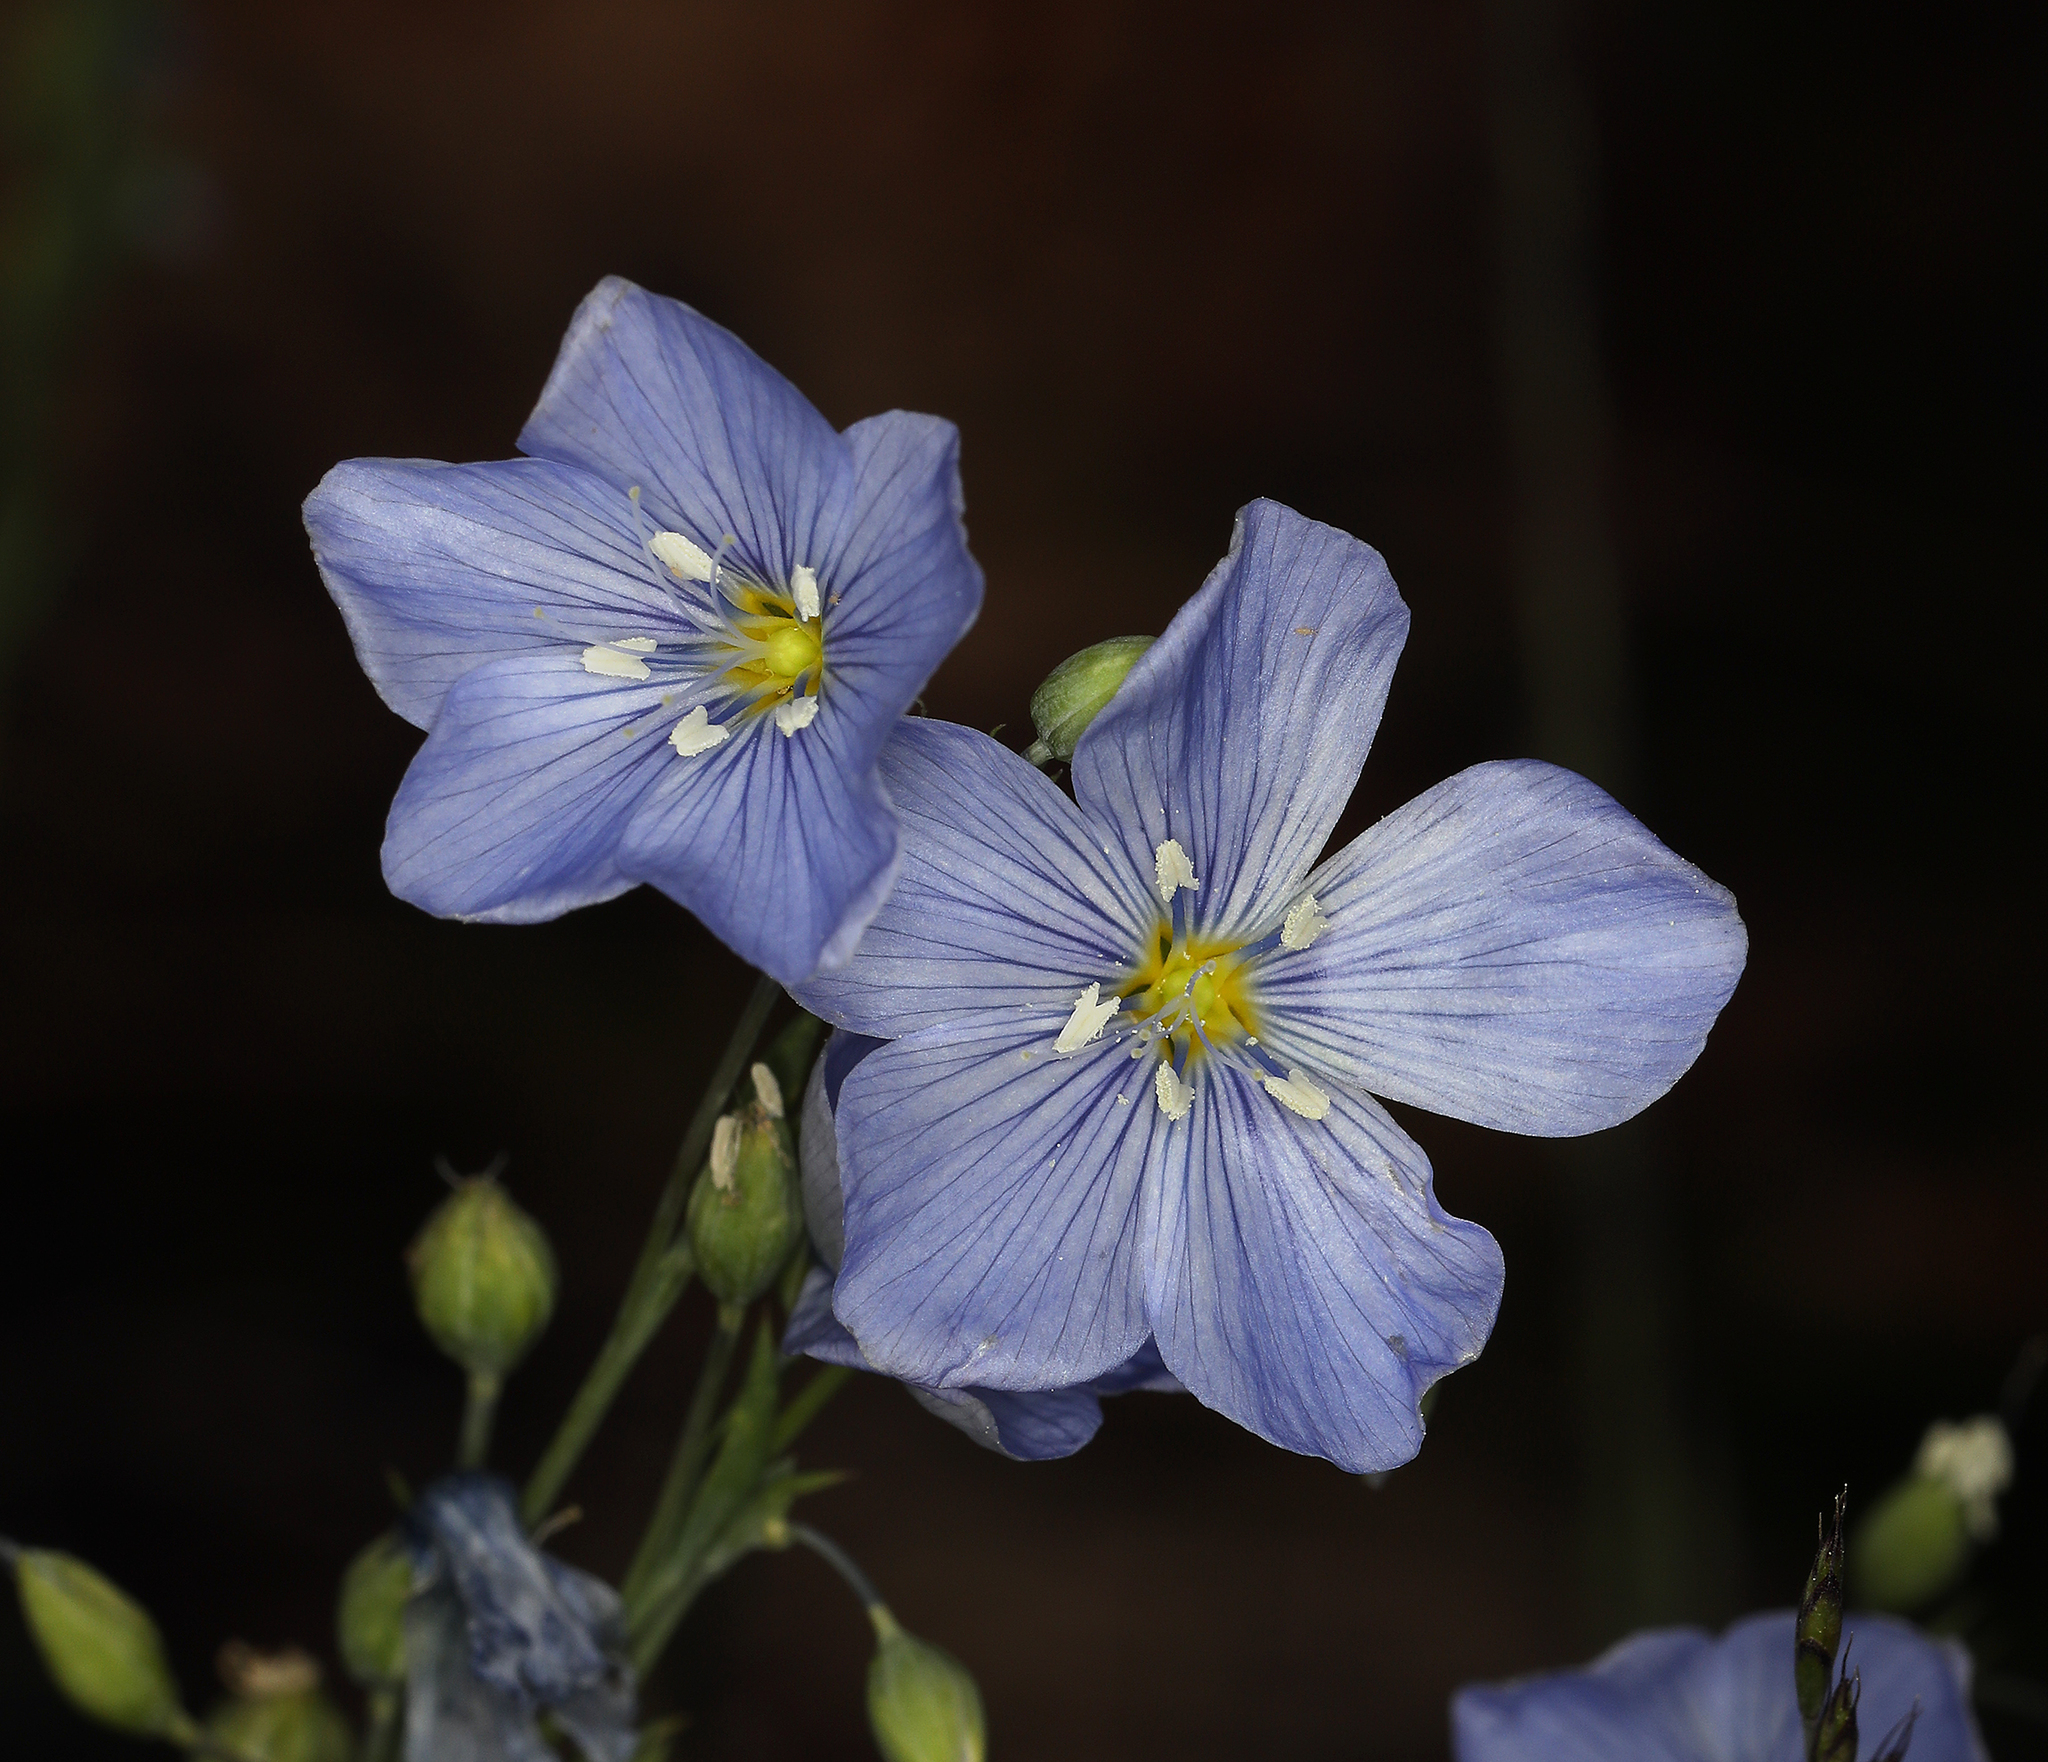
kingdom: Plantae
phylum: Tracheophyta
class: Magnoliopsida
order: Malpighiales
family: Linaceae
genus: Linum
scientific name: Linum lewisii
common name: Prairie flax
